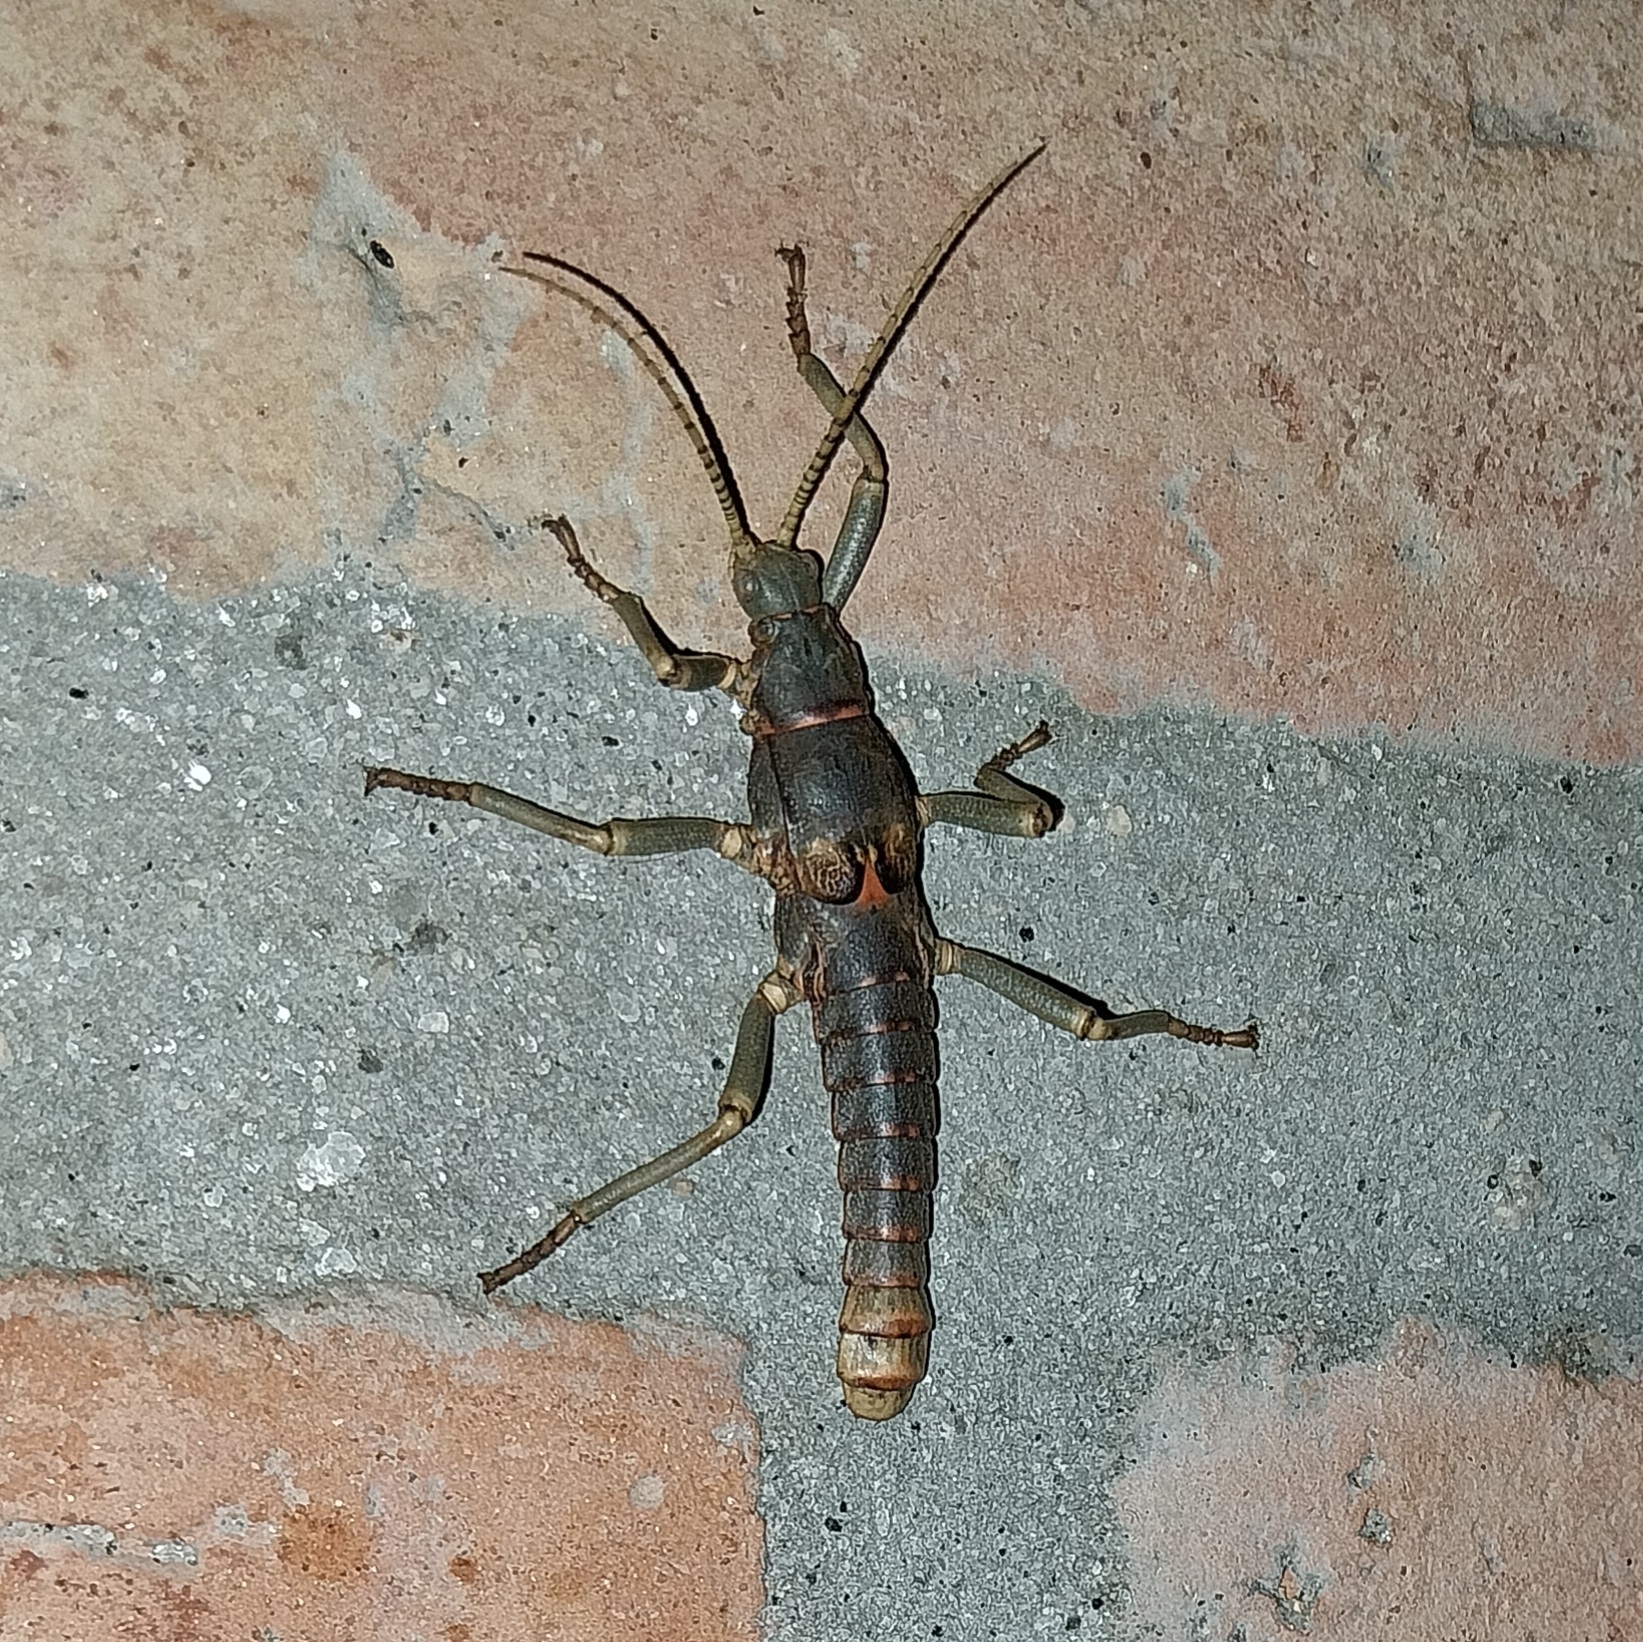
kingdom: Animalia
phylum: Arthropoda
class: Insecta
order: Phasmida
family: Agathemeridae
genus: Agathemera
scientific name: Agathemera luteola
